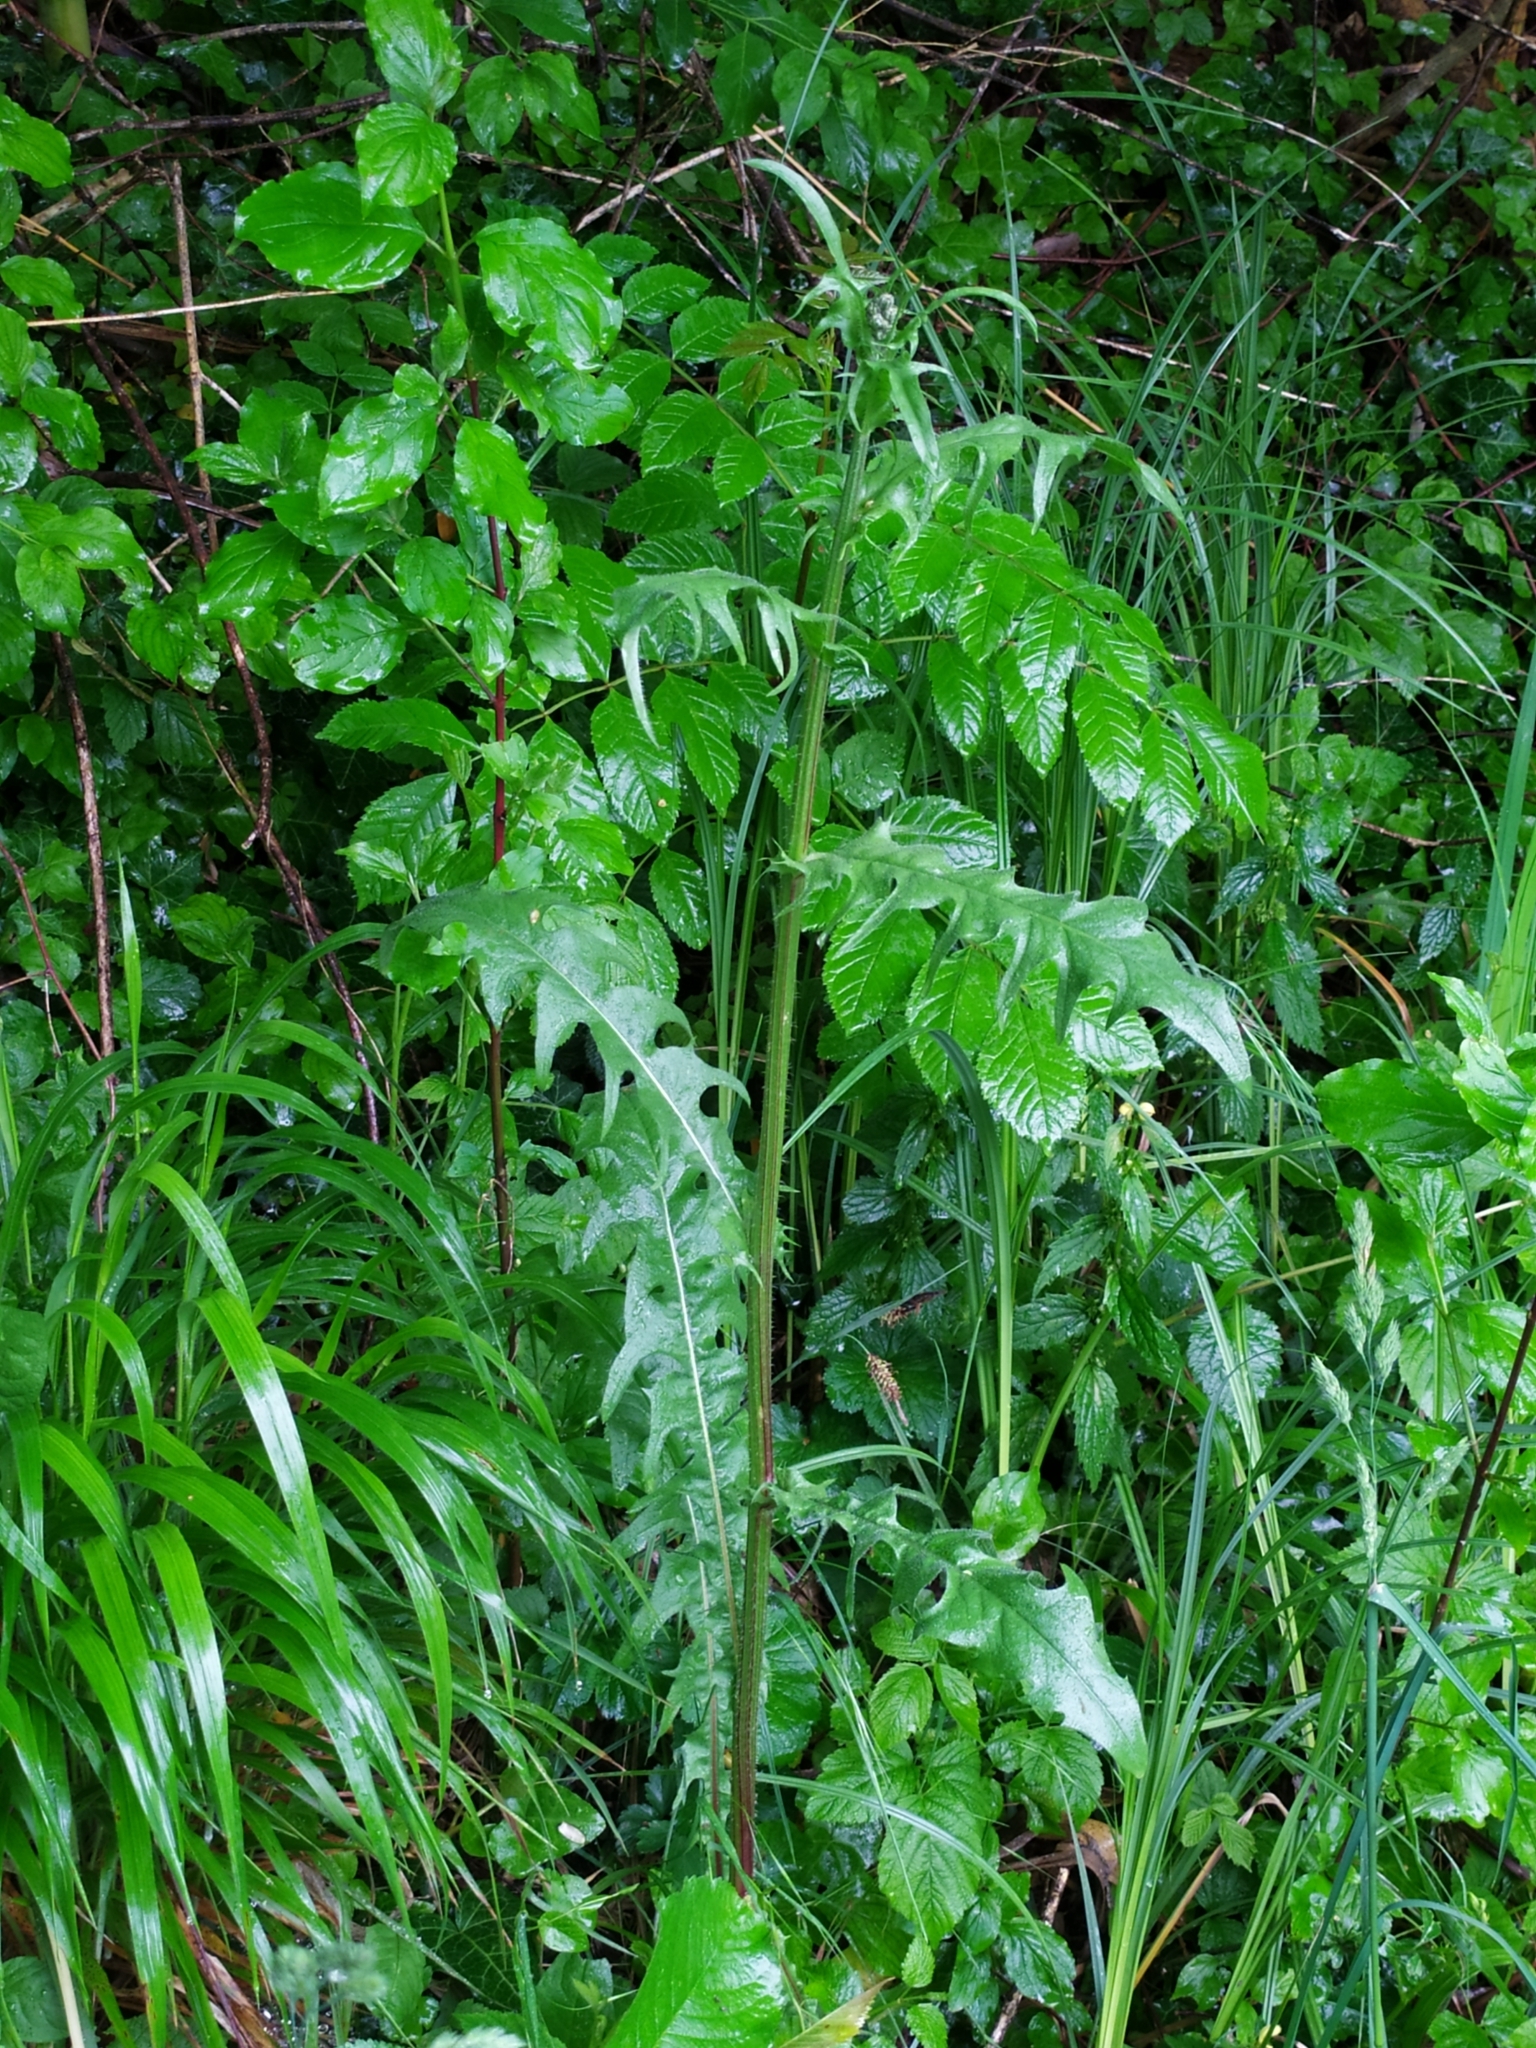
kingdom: Plantae
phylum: Tracheophyta
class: Magnoliopsida
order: Asterales
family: Asteraceae
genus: Crepis
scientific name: Crepis biennis
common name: Rough hawk's-beard
